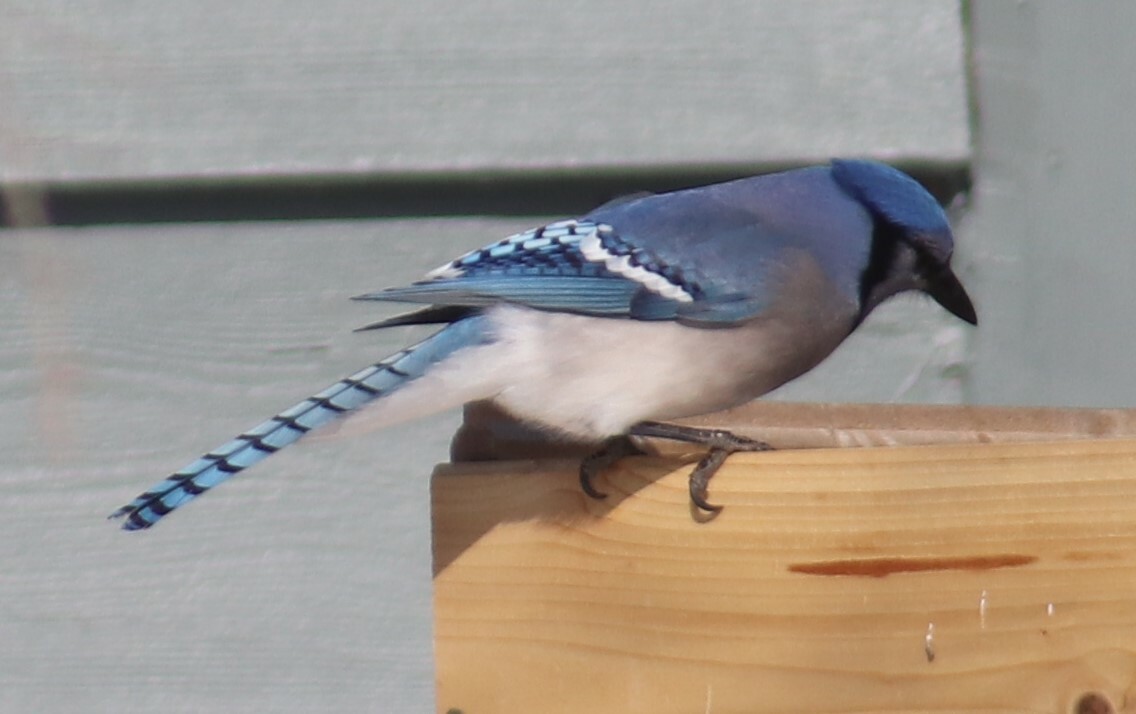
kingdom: Animalia
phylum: Chordata
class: Aves
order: Passeriformes
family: Corvidae
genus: Cyanocitta
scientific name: Cyanocitta cristata
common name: Blue jay
